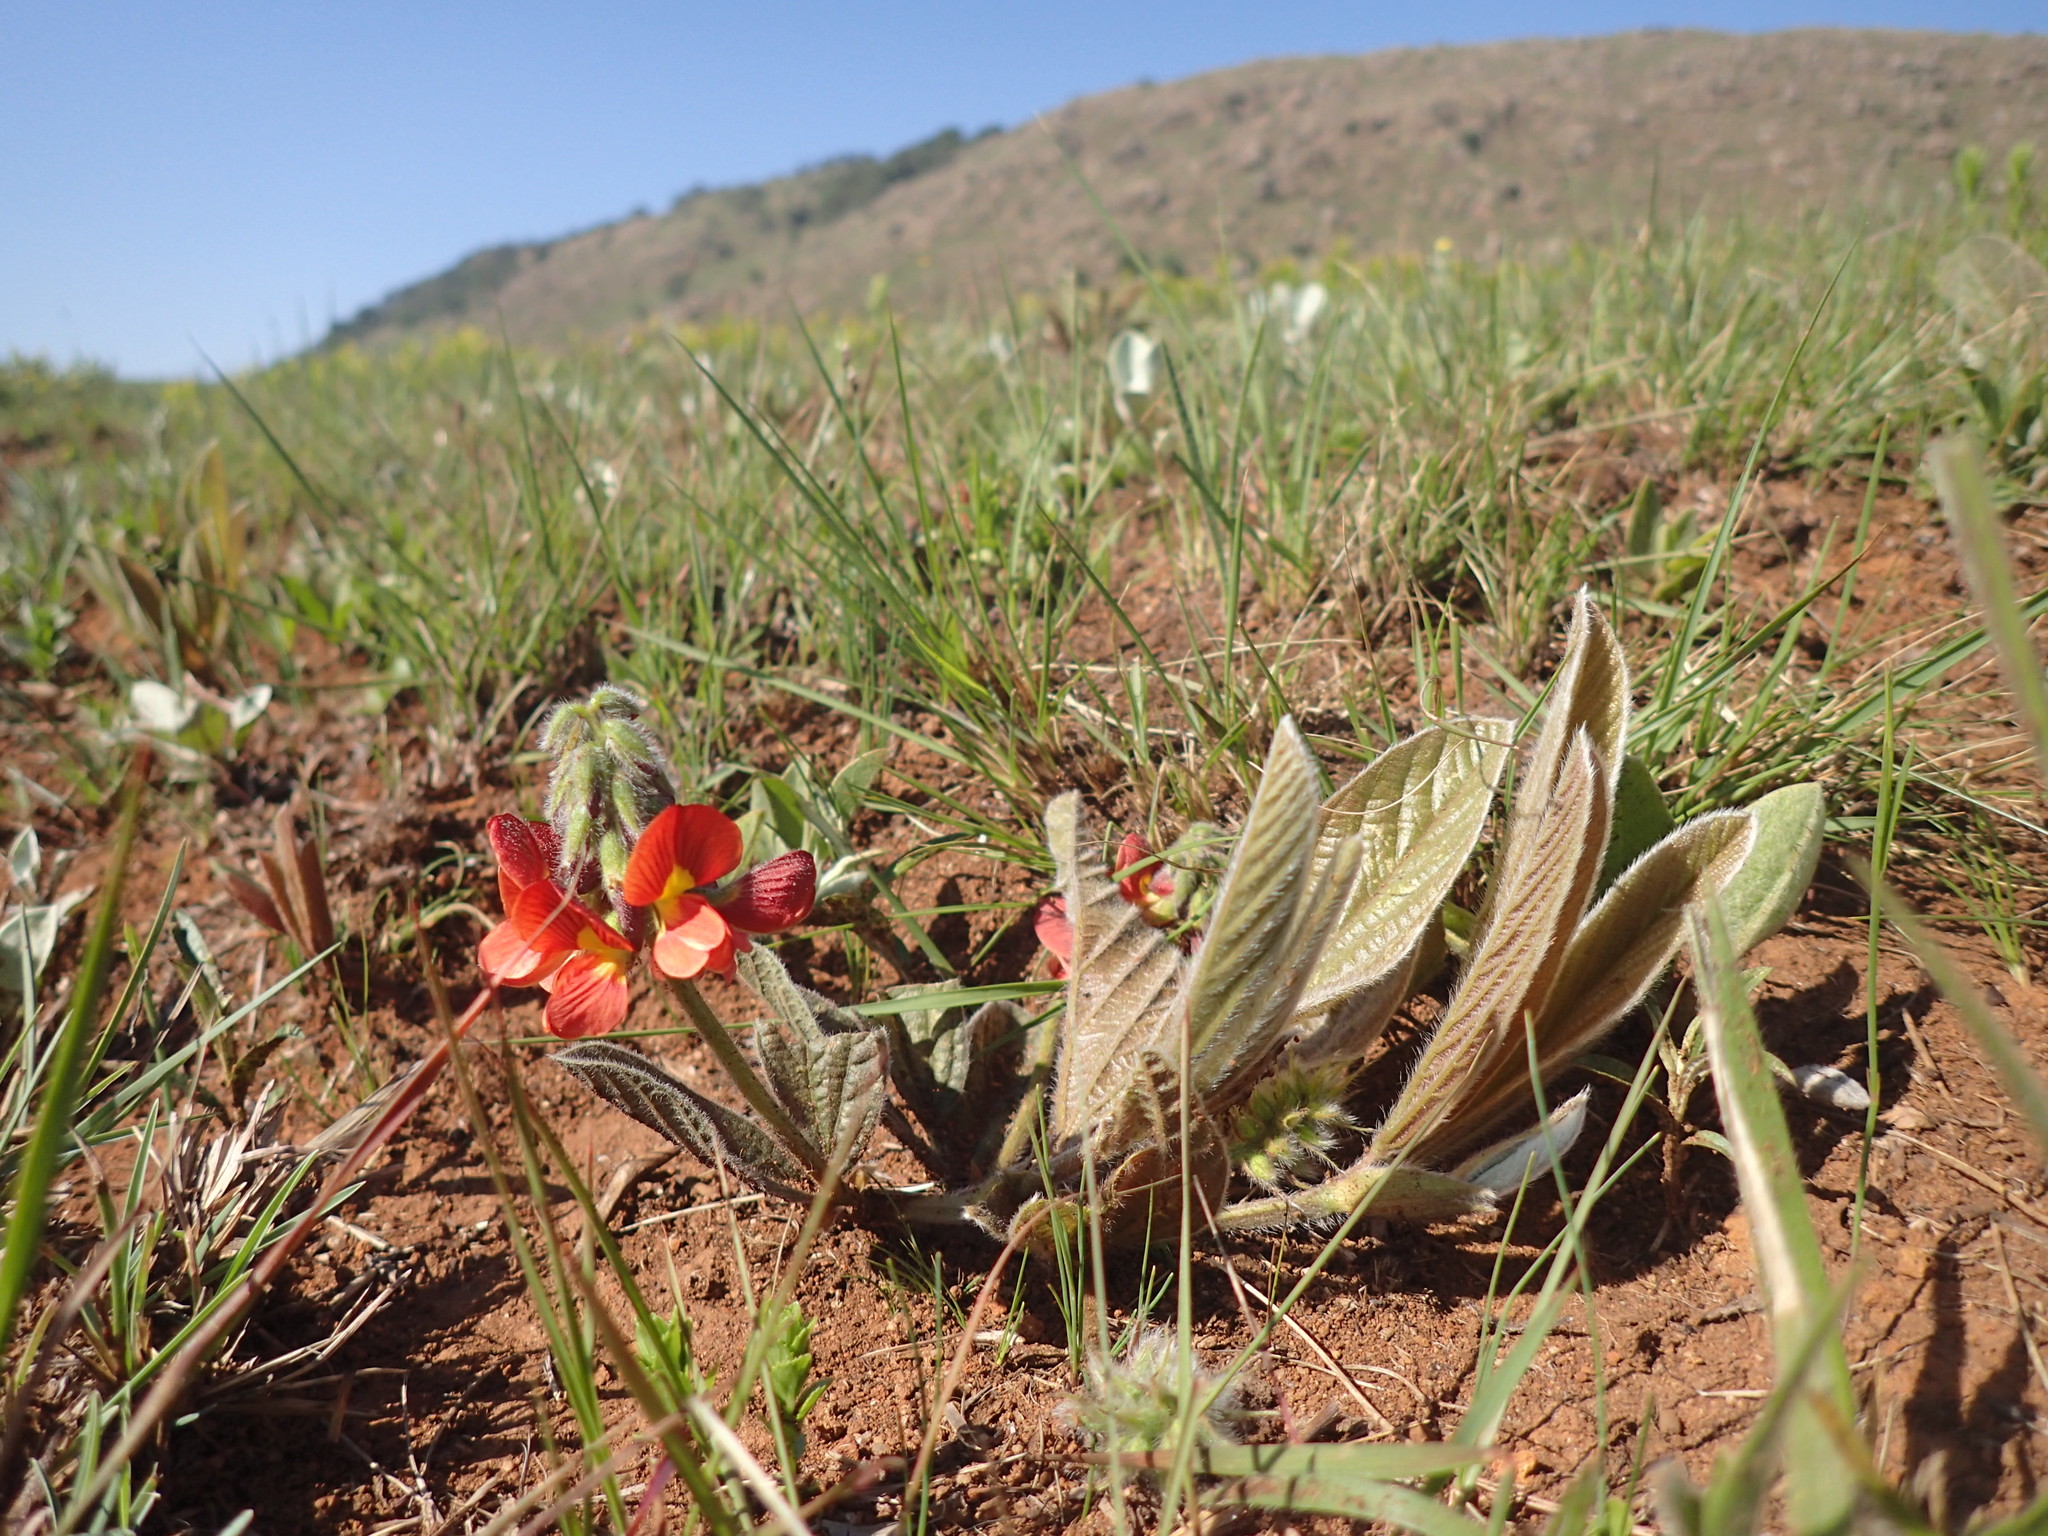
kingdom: Plantae
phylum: Tracheophyta
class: Magnoliopsida
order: Fabales
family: Fabaceae
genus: Eriosema
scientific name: Eriosema distinctum
